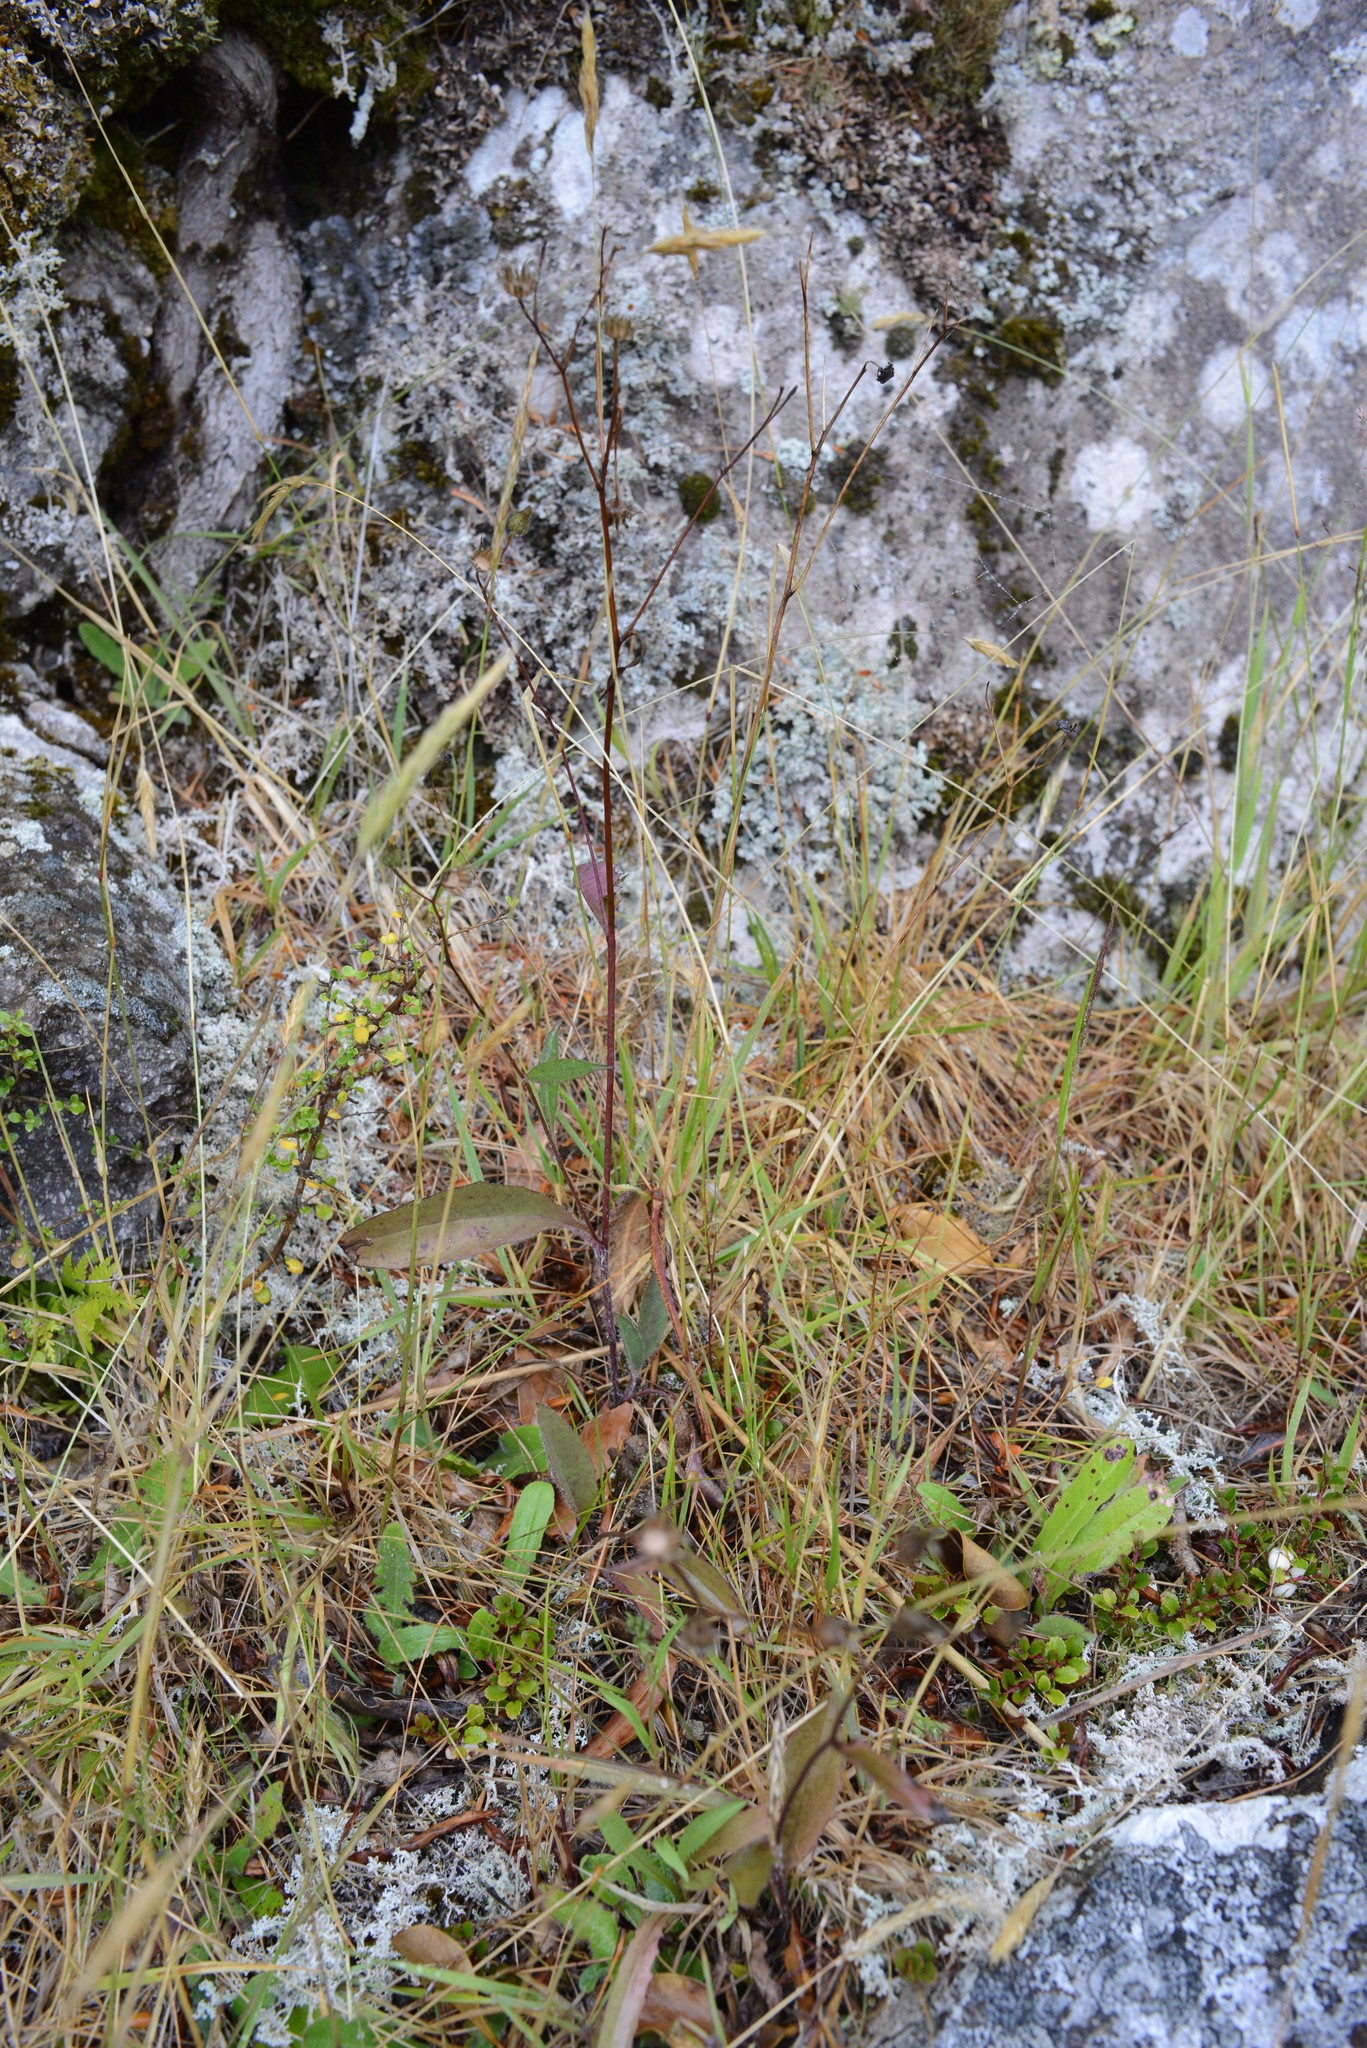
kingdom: Plantae
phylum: Tracheophyta
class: Magnoliopsida
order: Asterales
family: Asteraceae
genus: Hieracium
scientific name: Hieracium lepidulum
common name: Irregular-toothed hawkweed
